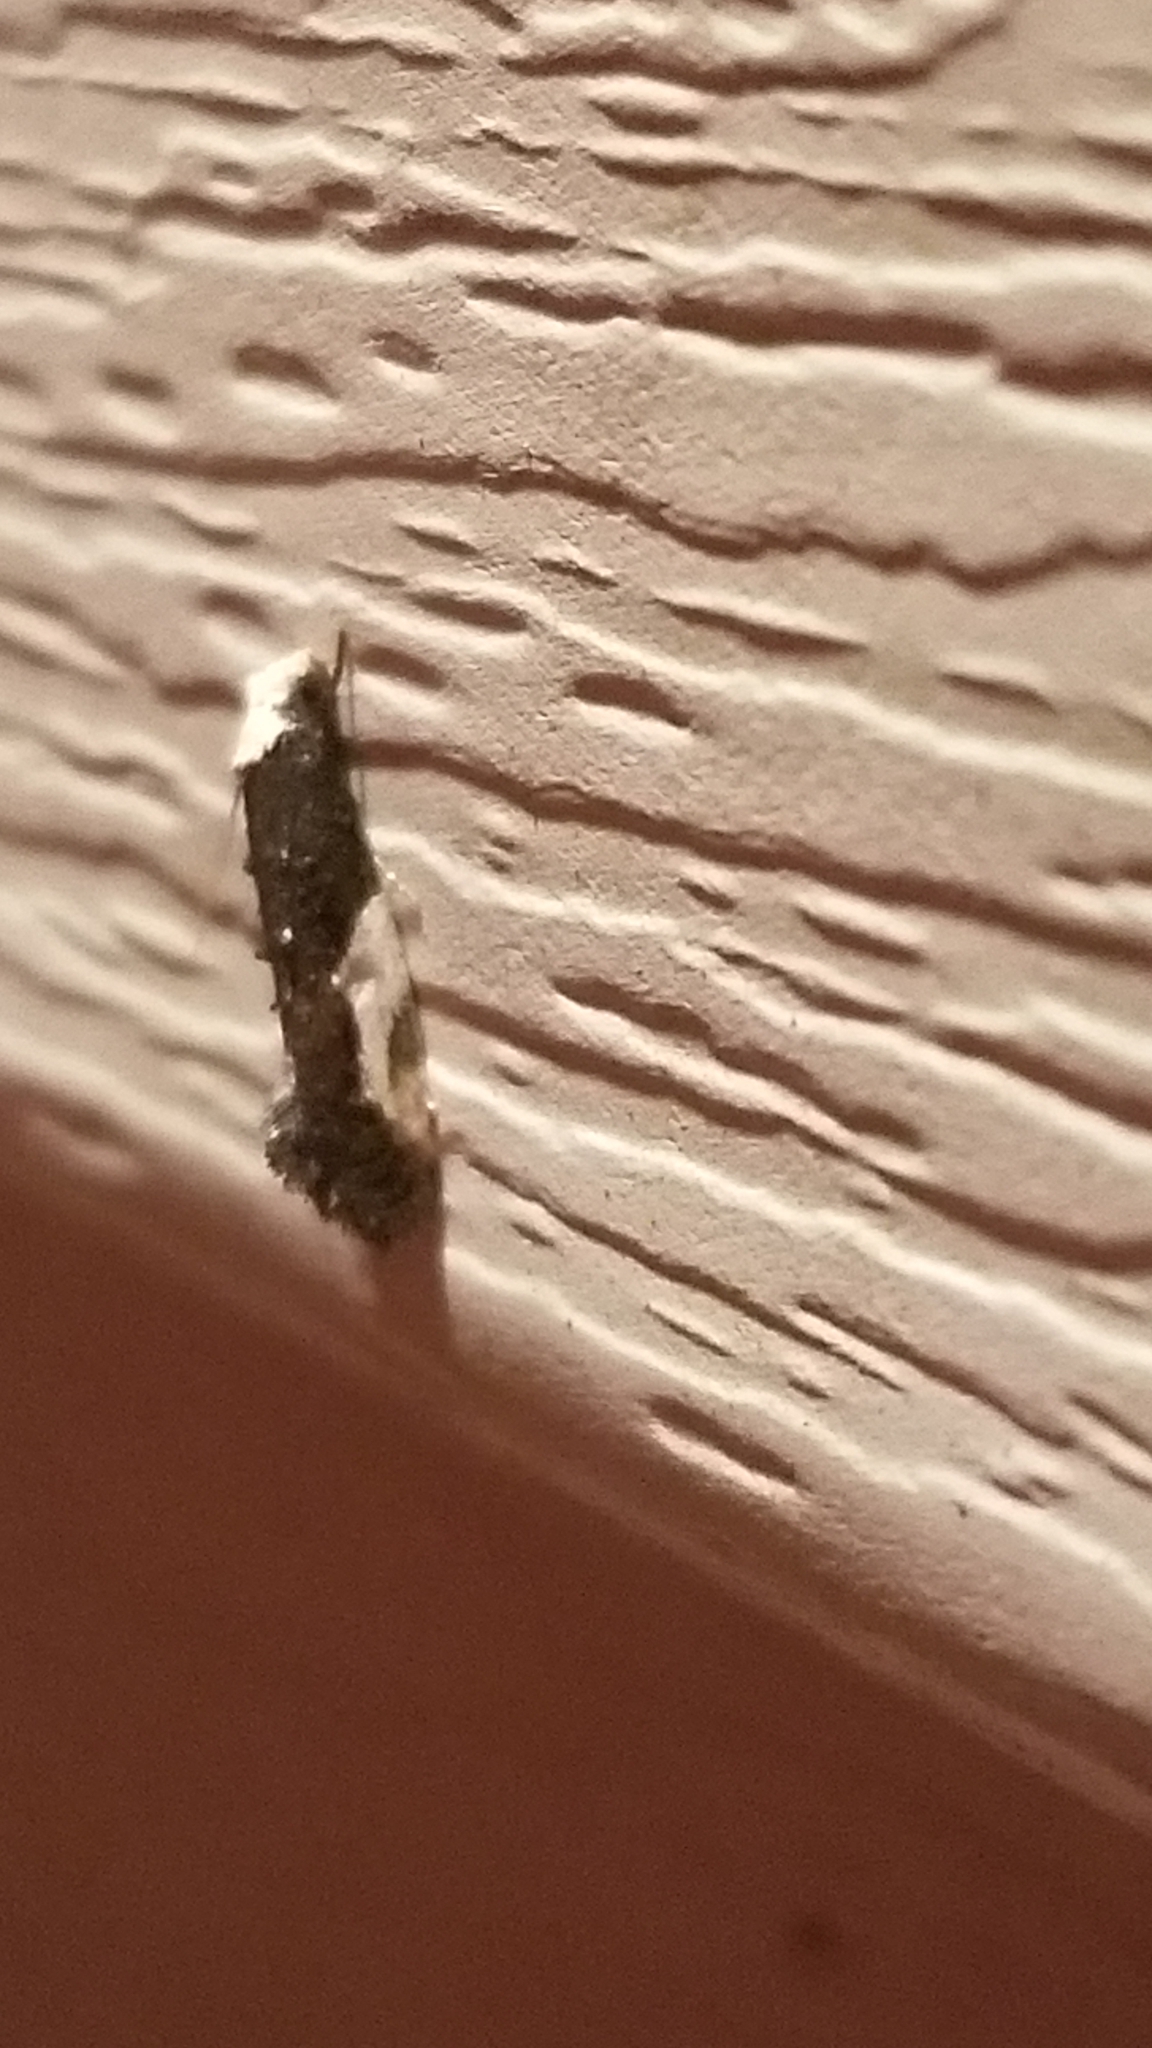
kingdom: Animalia
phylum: Arthropoda
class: Insecta
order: Lepidoptera
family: Tineidae
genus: Monopis
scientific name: Monopis longella
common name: Pavlovski's monopis moth
